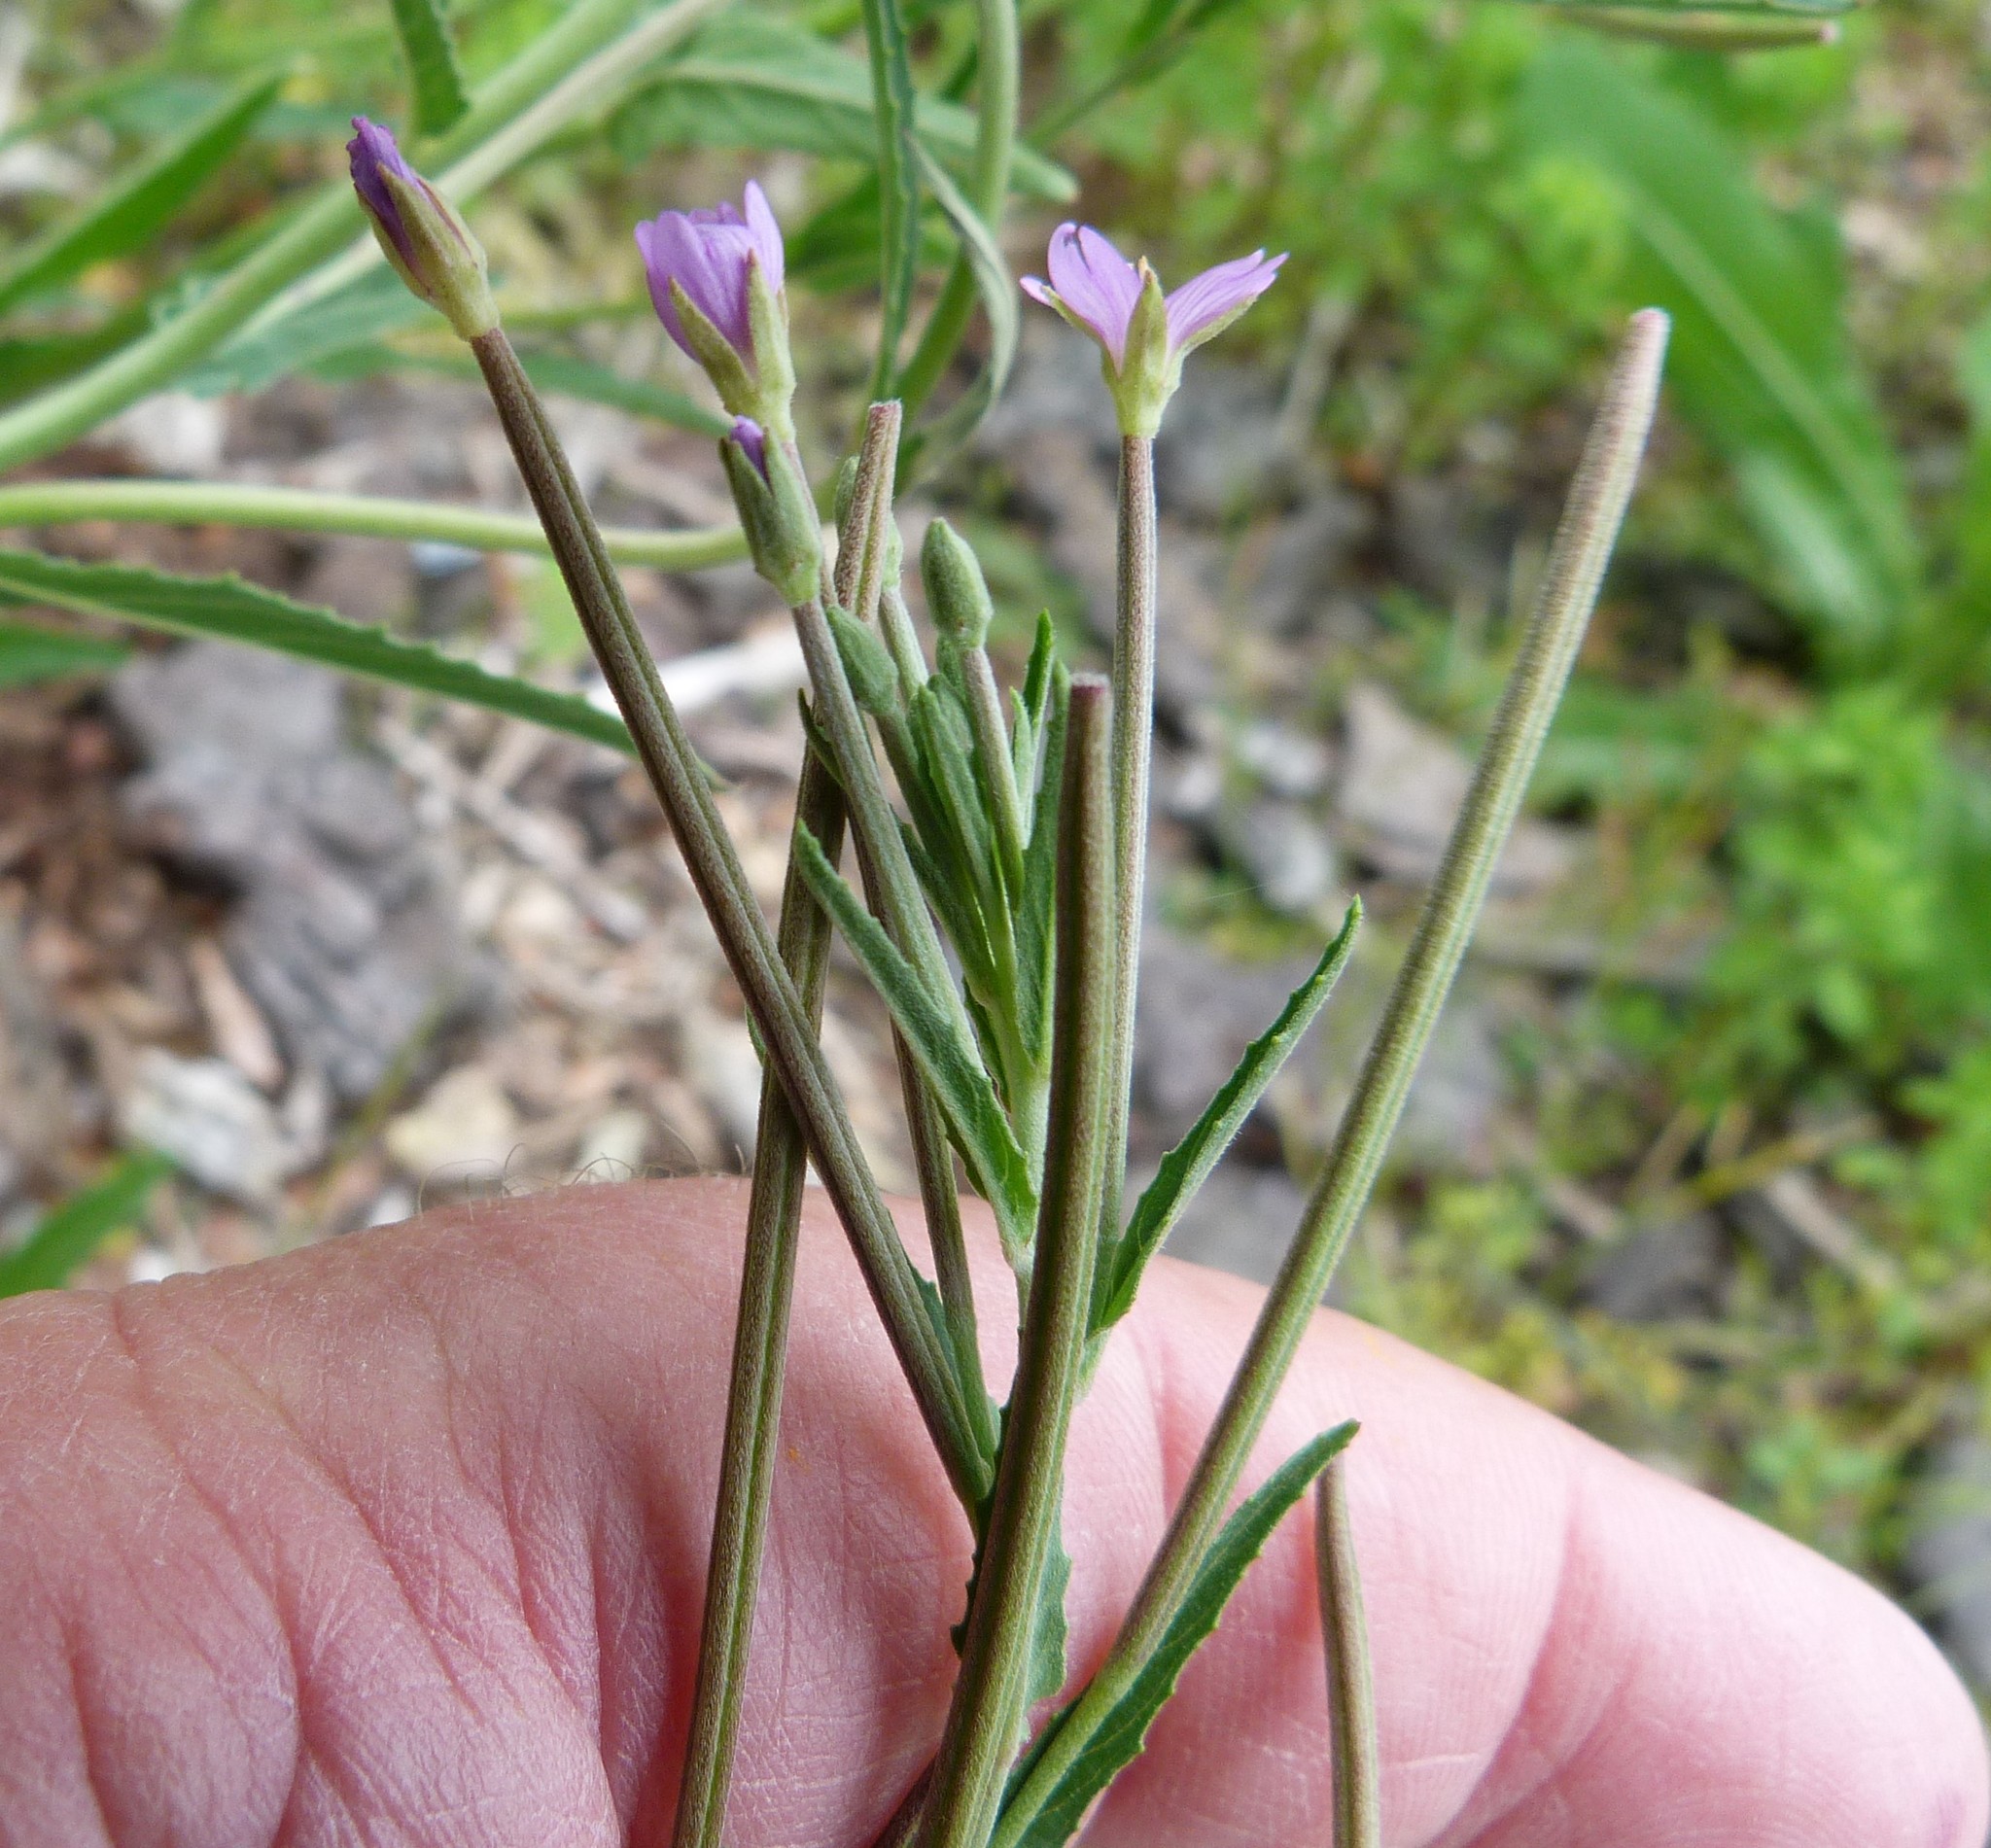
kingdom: Plantae
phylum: Tracheophyta
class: Magnoliopsida
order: Myrtales
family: Onagraceae
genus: Epilobium
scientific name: Epilobium ciliatum
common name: American willowherb
